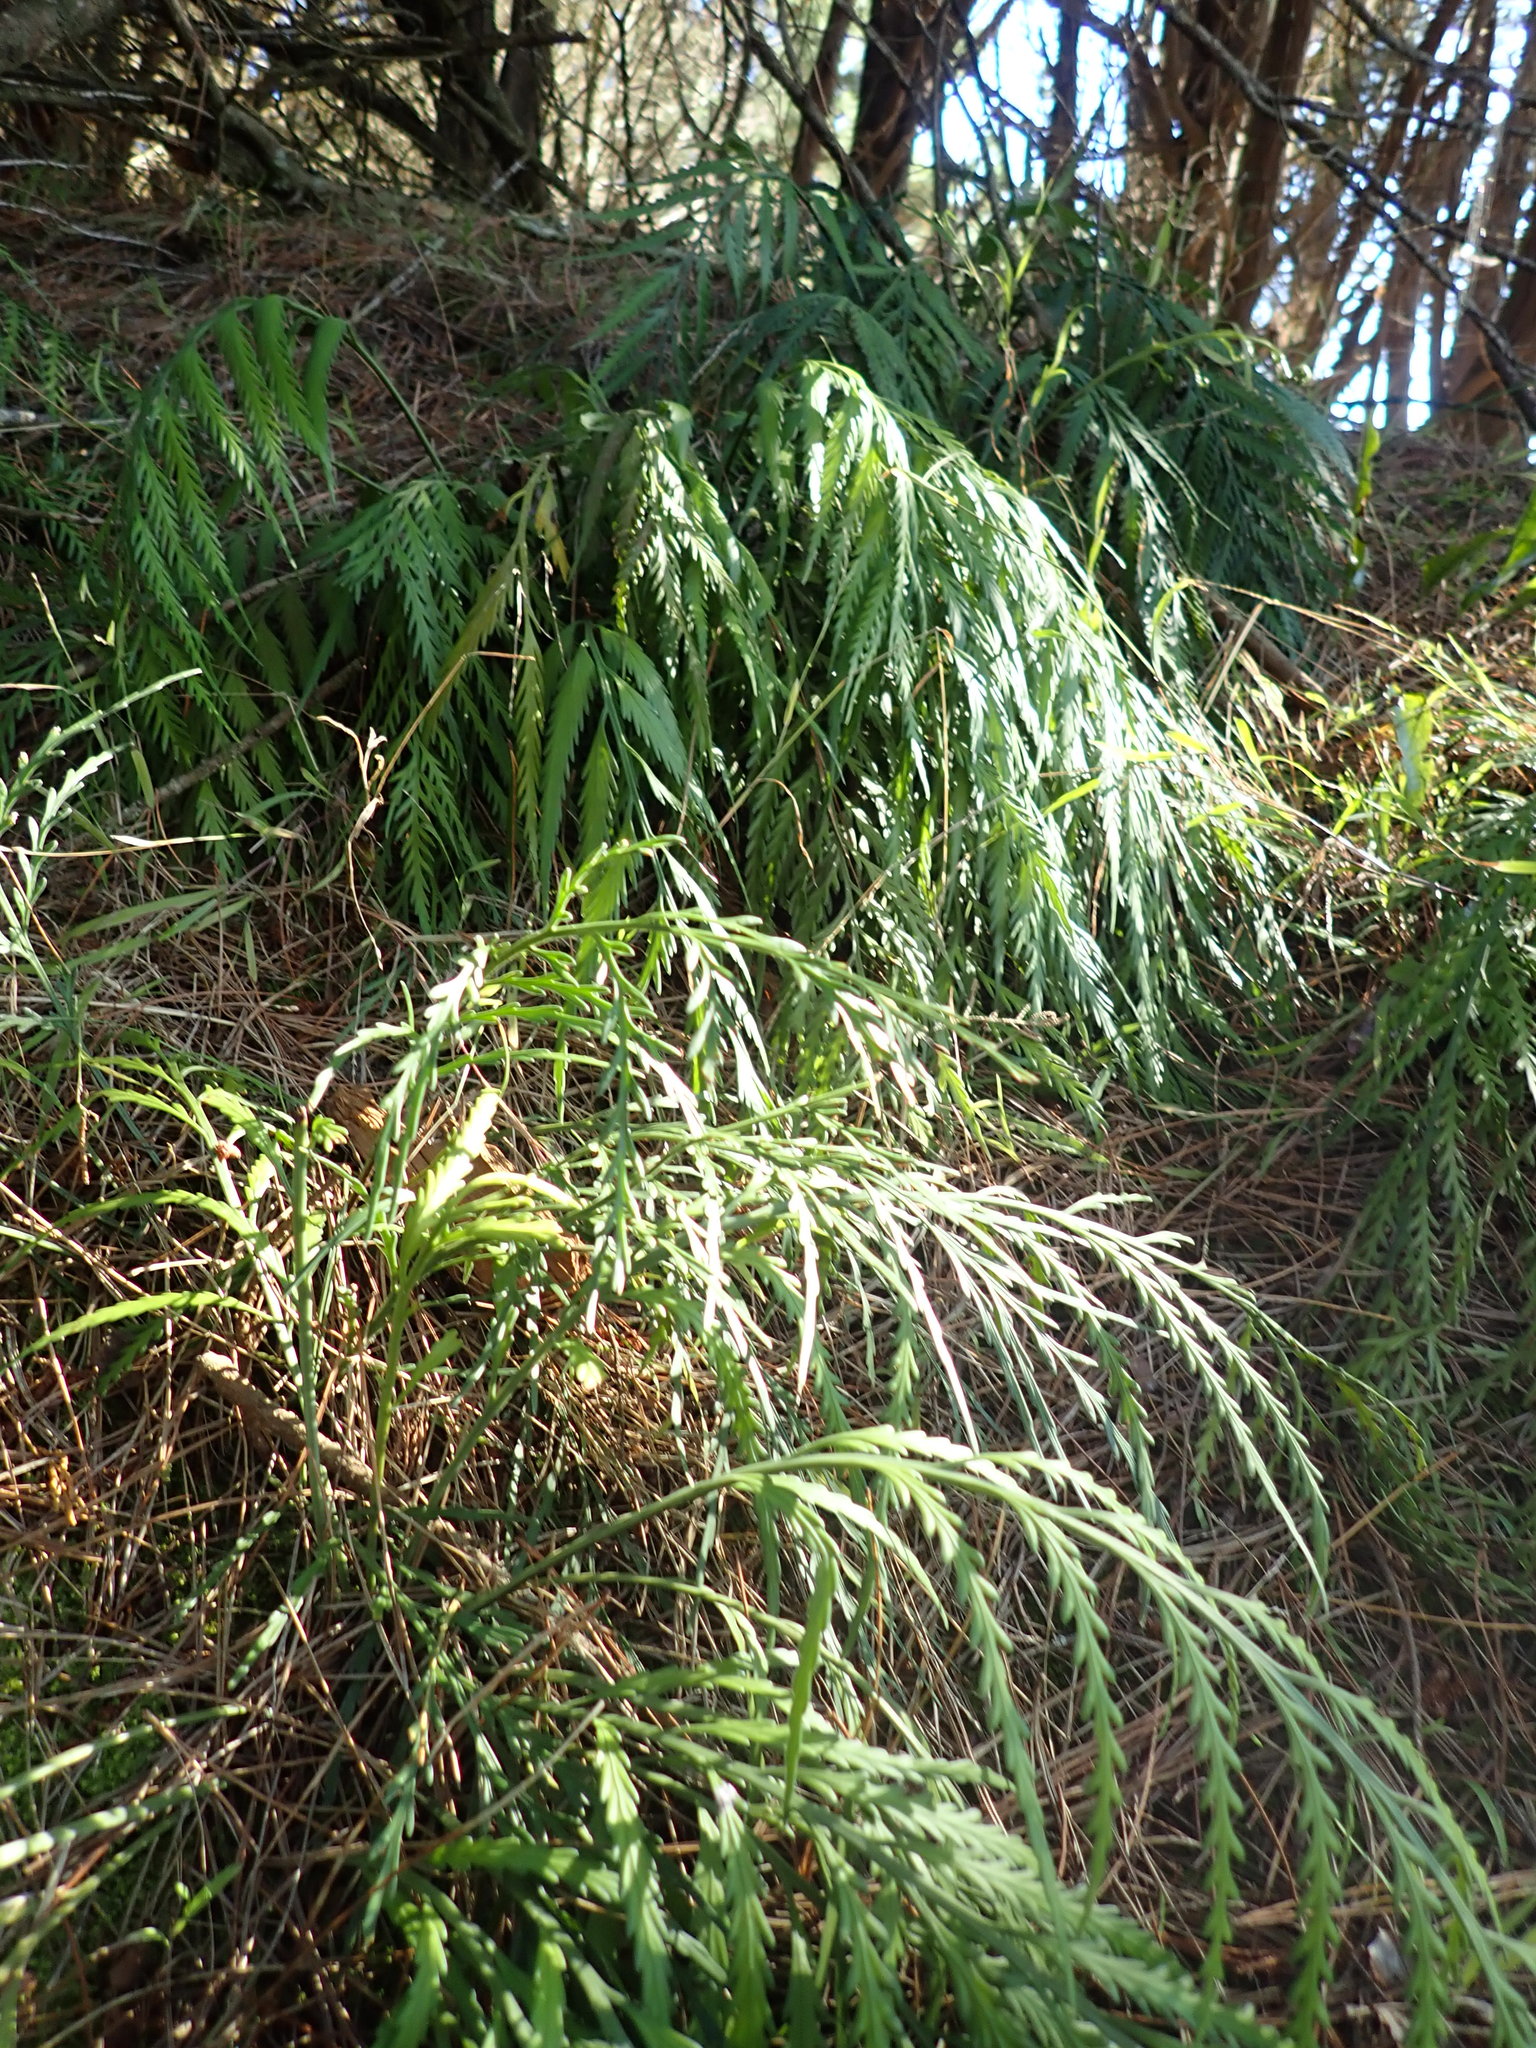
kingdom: Plantae
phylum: Tracheophyta
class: Polypodiopsida
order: Polypodiales
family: Aspleniaceae
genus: Asplenium
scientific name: Asplenium flaccidum
